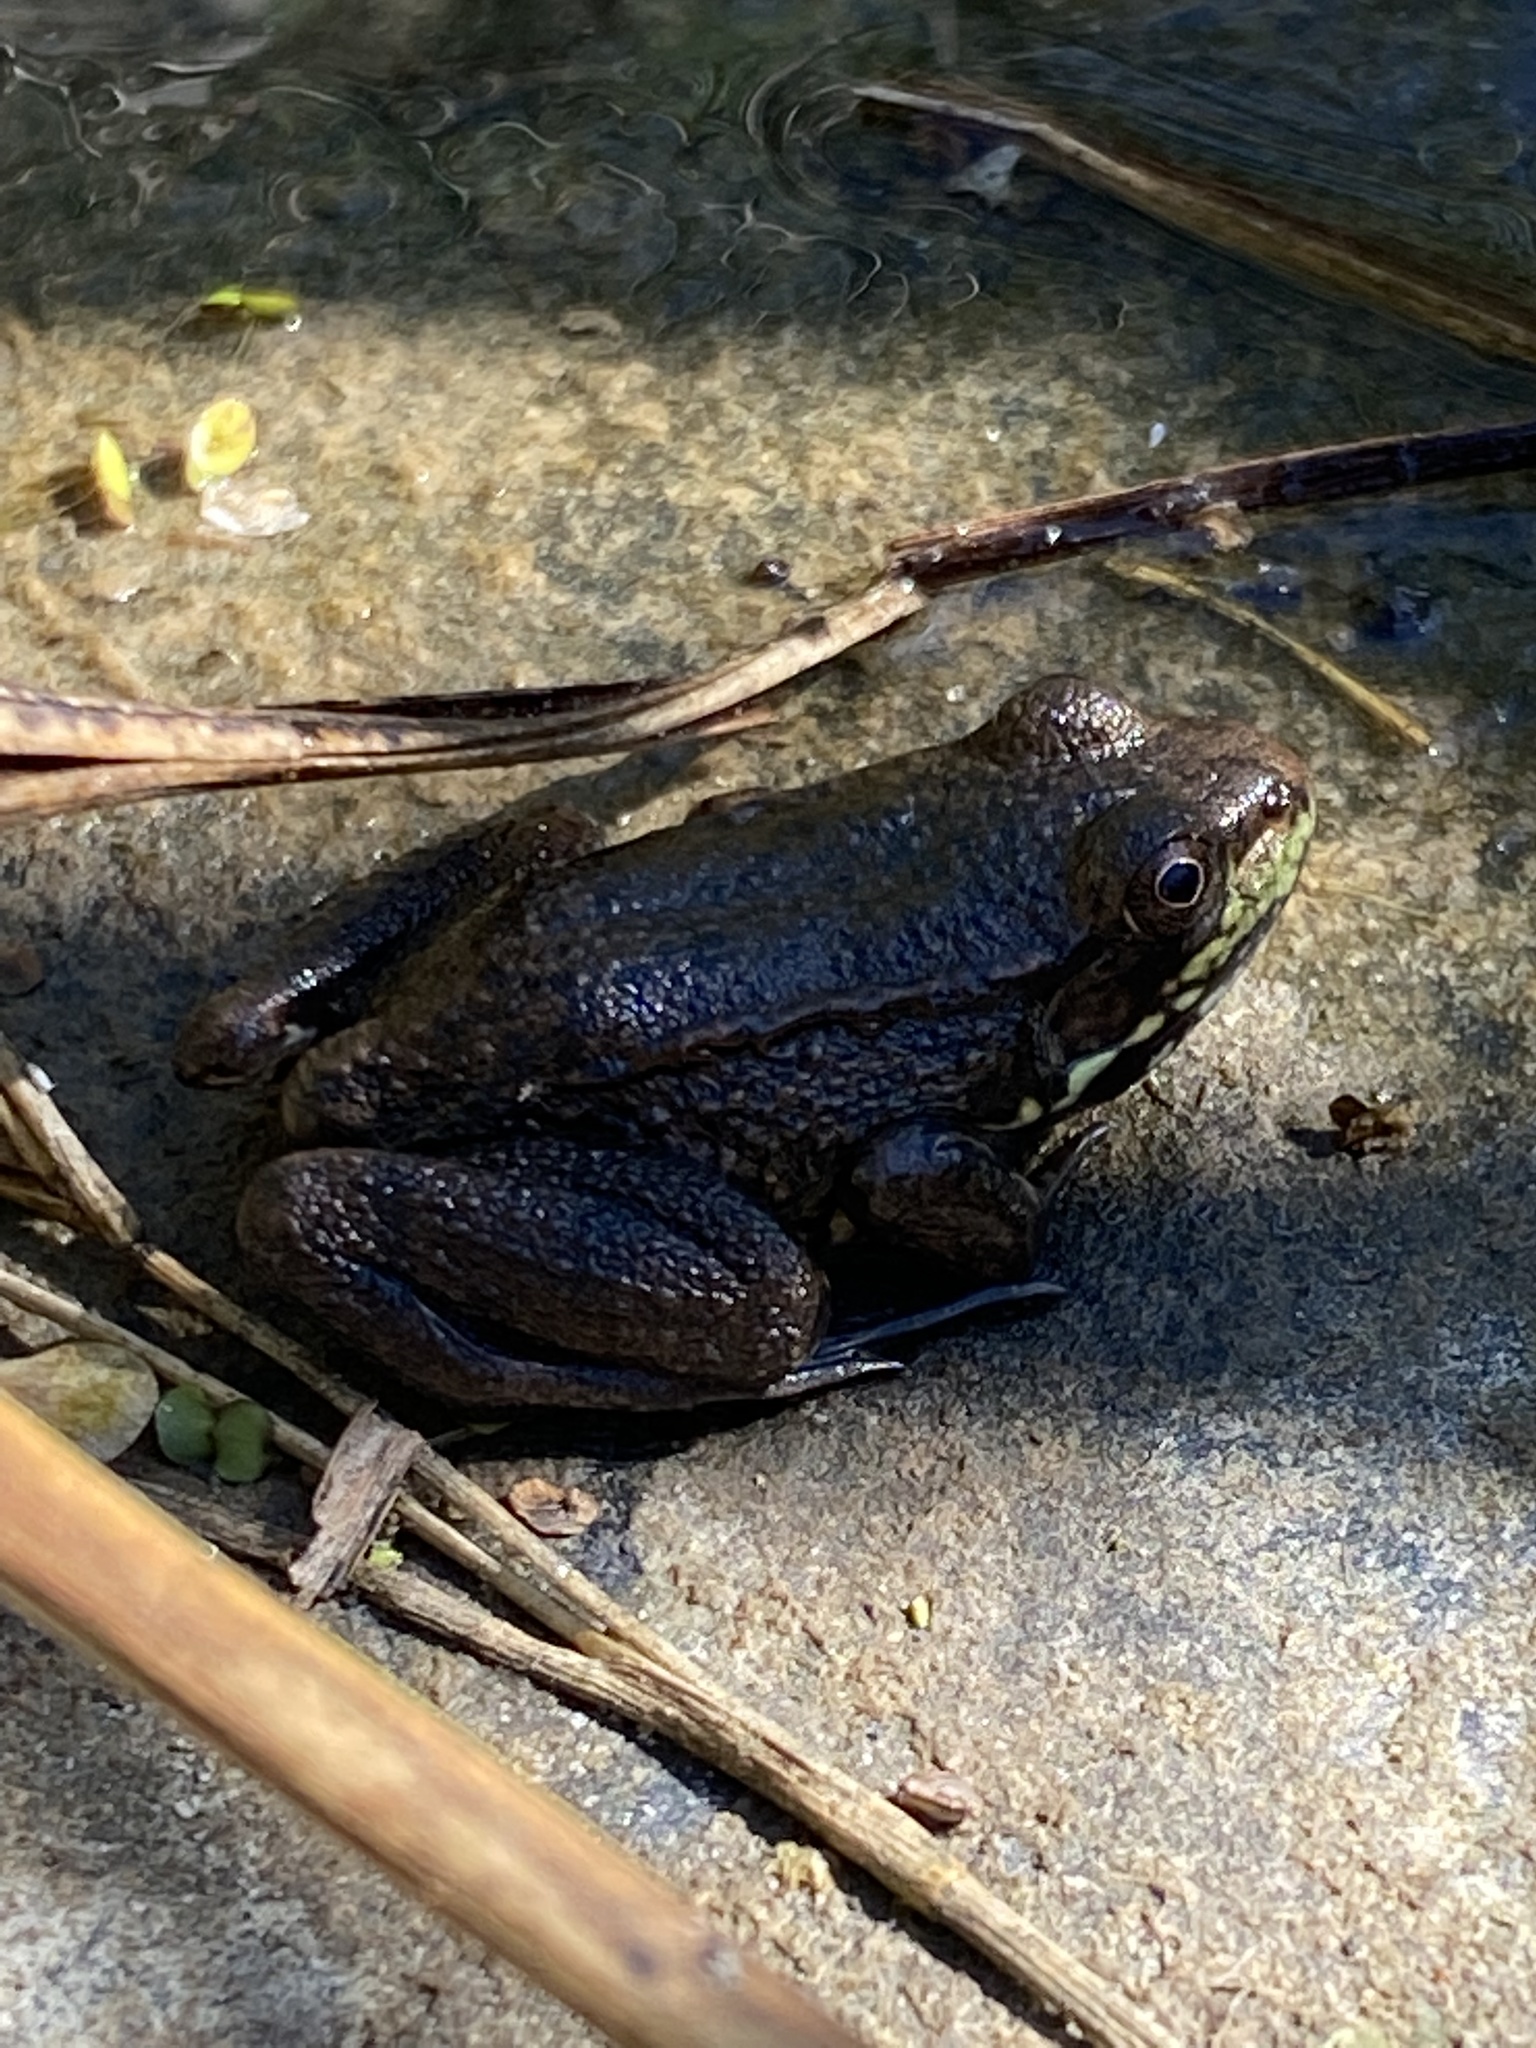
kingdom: Animalia
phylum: Chordata
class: Amphibia
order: Anura
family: Ranidae
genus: Lithobates
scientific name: Lithobates clamitans
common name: Green frog
